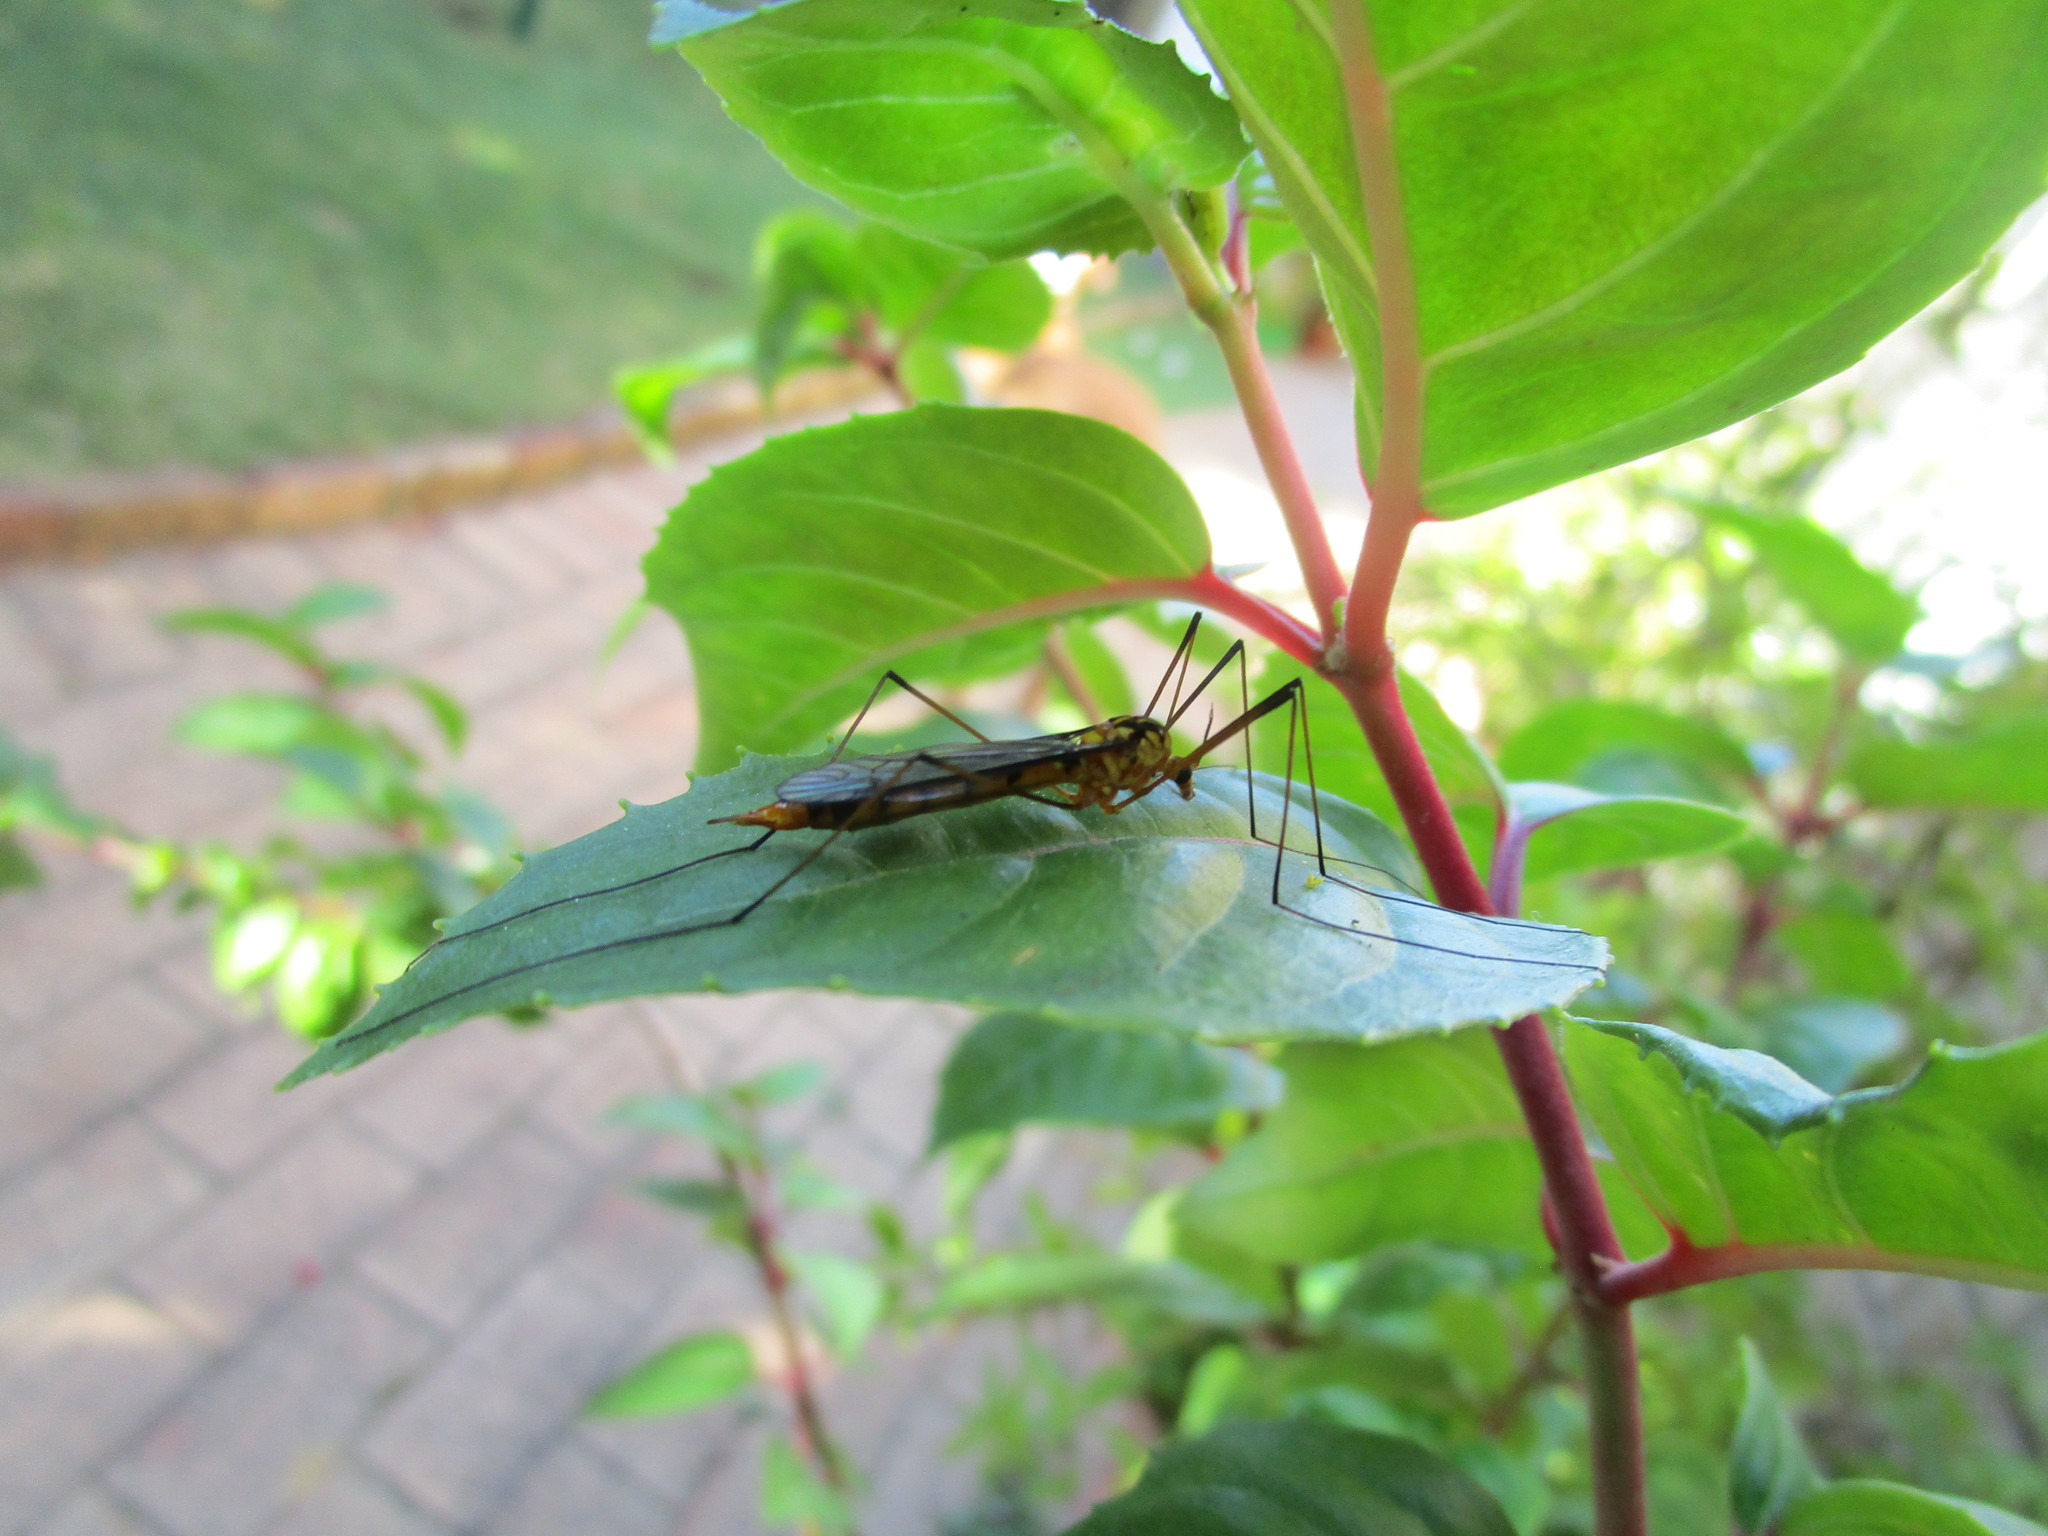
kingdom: Animalia
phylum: Arthropoda
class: Insecta
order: Diptera
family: Tipulidae
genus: Nephrotoma
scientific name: Nephrotoma australasiae
